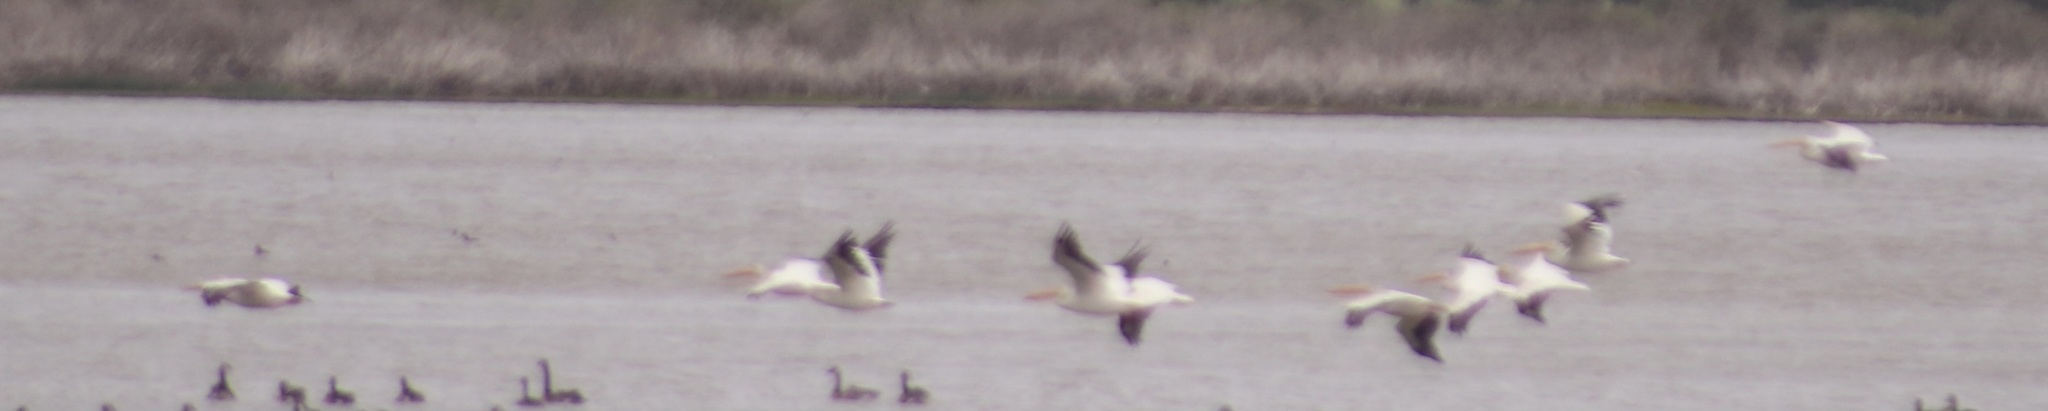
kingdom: Animalia
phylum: Chordata
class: Aves
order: Pelecaniformes
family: Pelecanidae
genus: Pelecanus
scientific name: Pelecanus erythrorhynchos
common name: American white pelican
